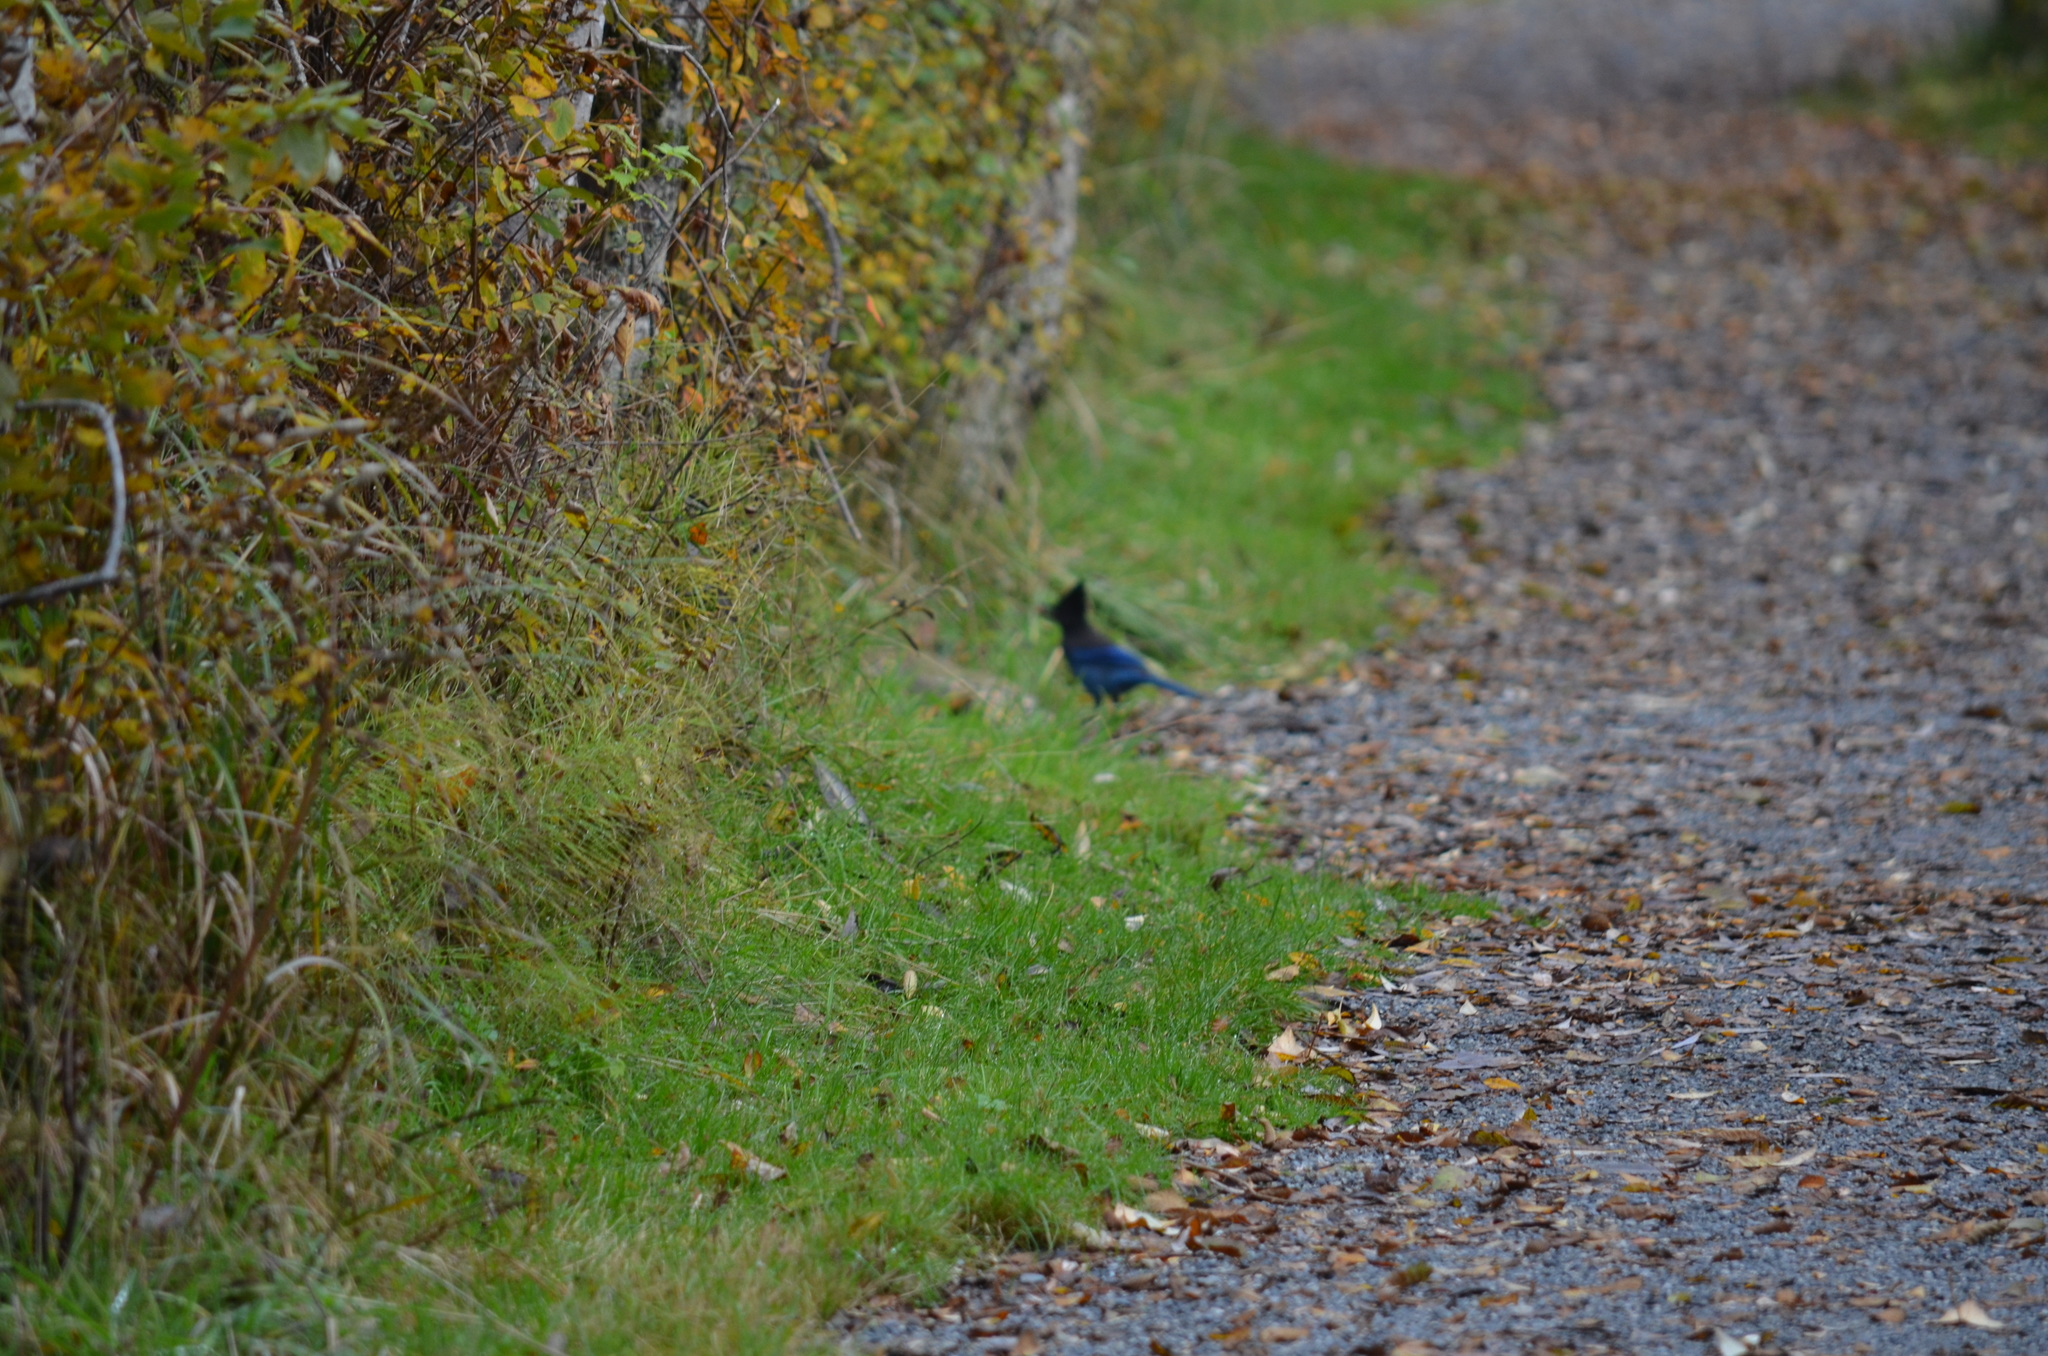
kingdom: Animalia
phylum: Chordata
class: Aves
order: Passeriformes
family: Corvidae
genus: Cyanocitta
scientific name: Cyanocitta stelleri
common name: Steller's jay
